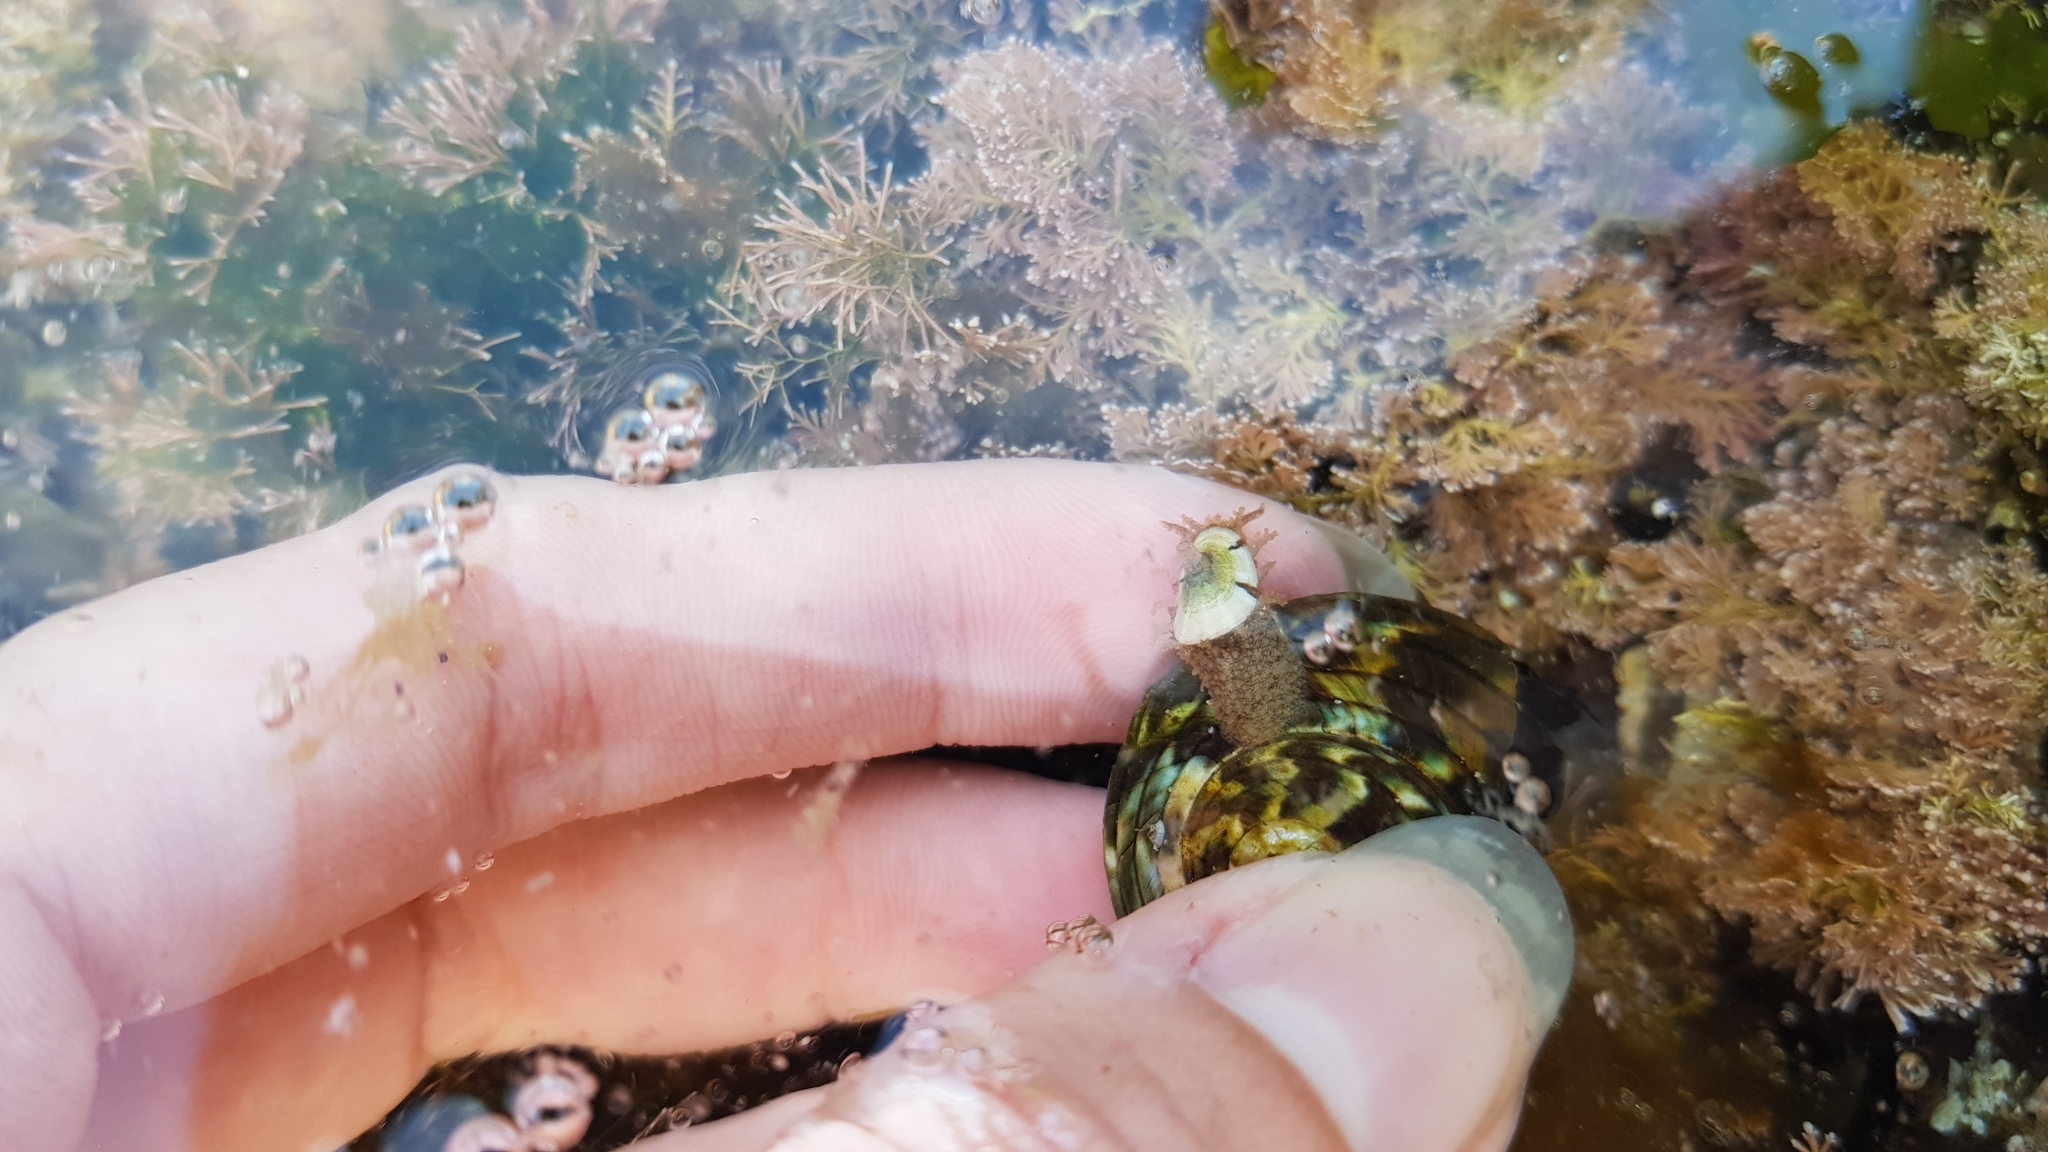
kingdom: Animalia
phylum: Mollusca
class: Gastropoda
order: Lepetellida
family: Fissurellidae
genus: Amblychilepas
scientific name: Amblychilepas nigrita
